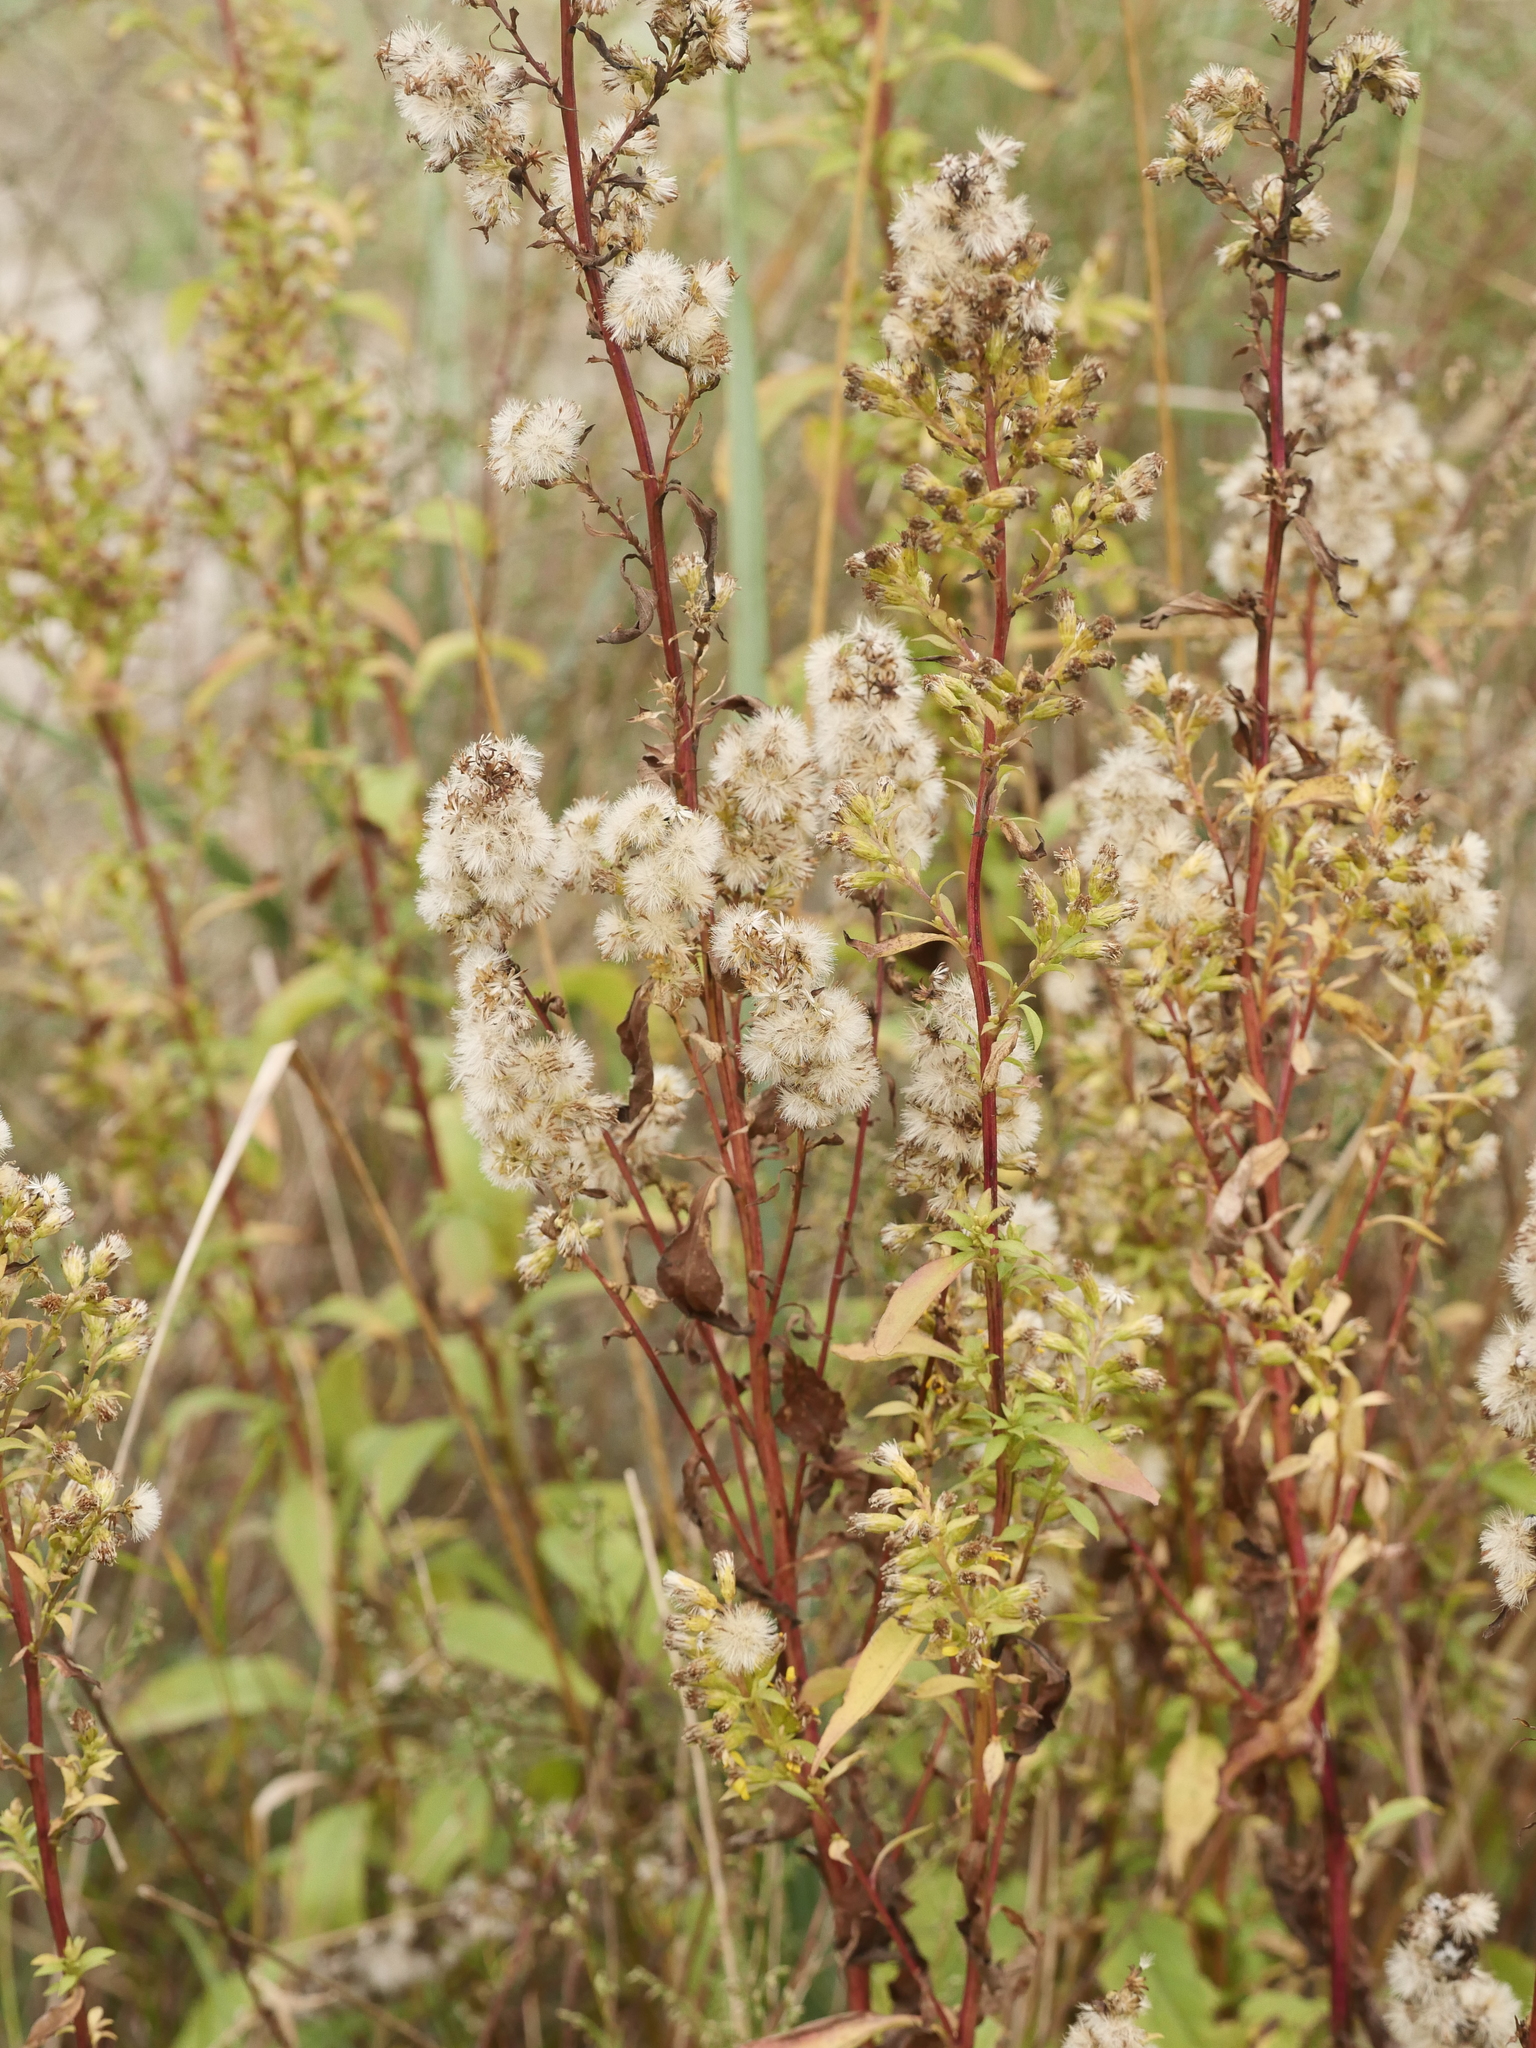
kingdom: Plantae
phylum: Tracheophyta
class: Magnoliopsida
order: Asterales
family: Asteraceae
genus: Solidago
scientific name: Solidago virgaurea
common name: Goldenrod
